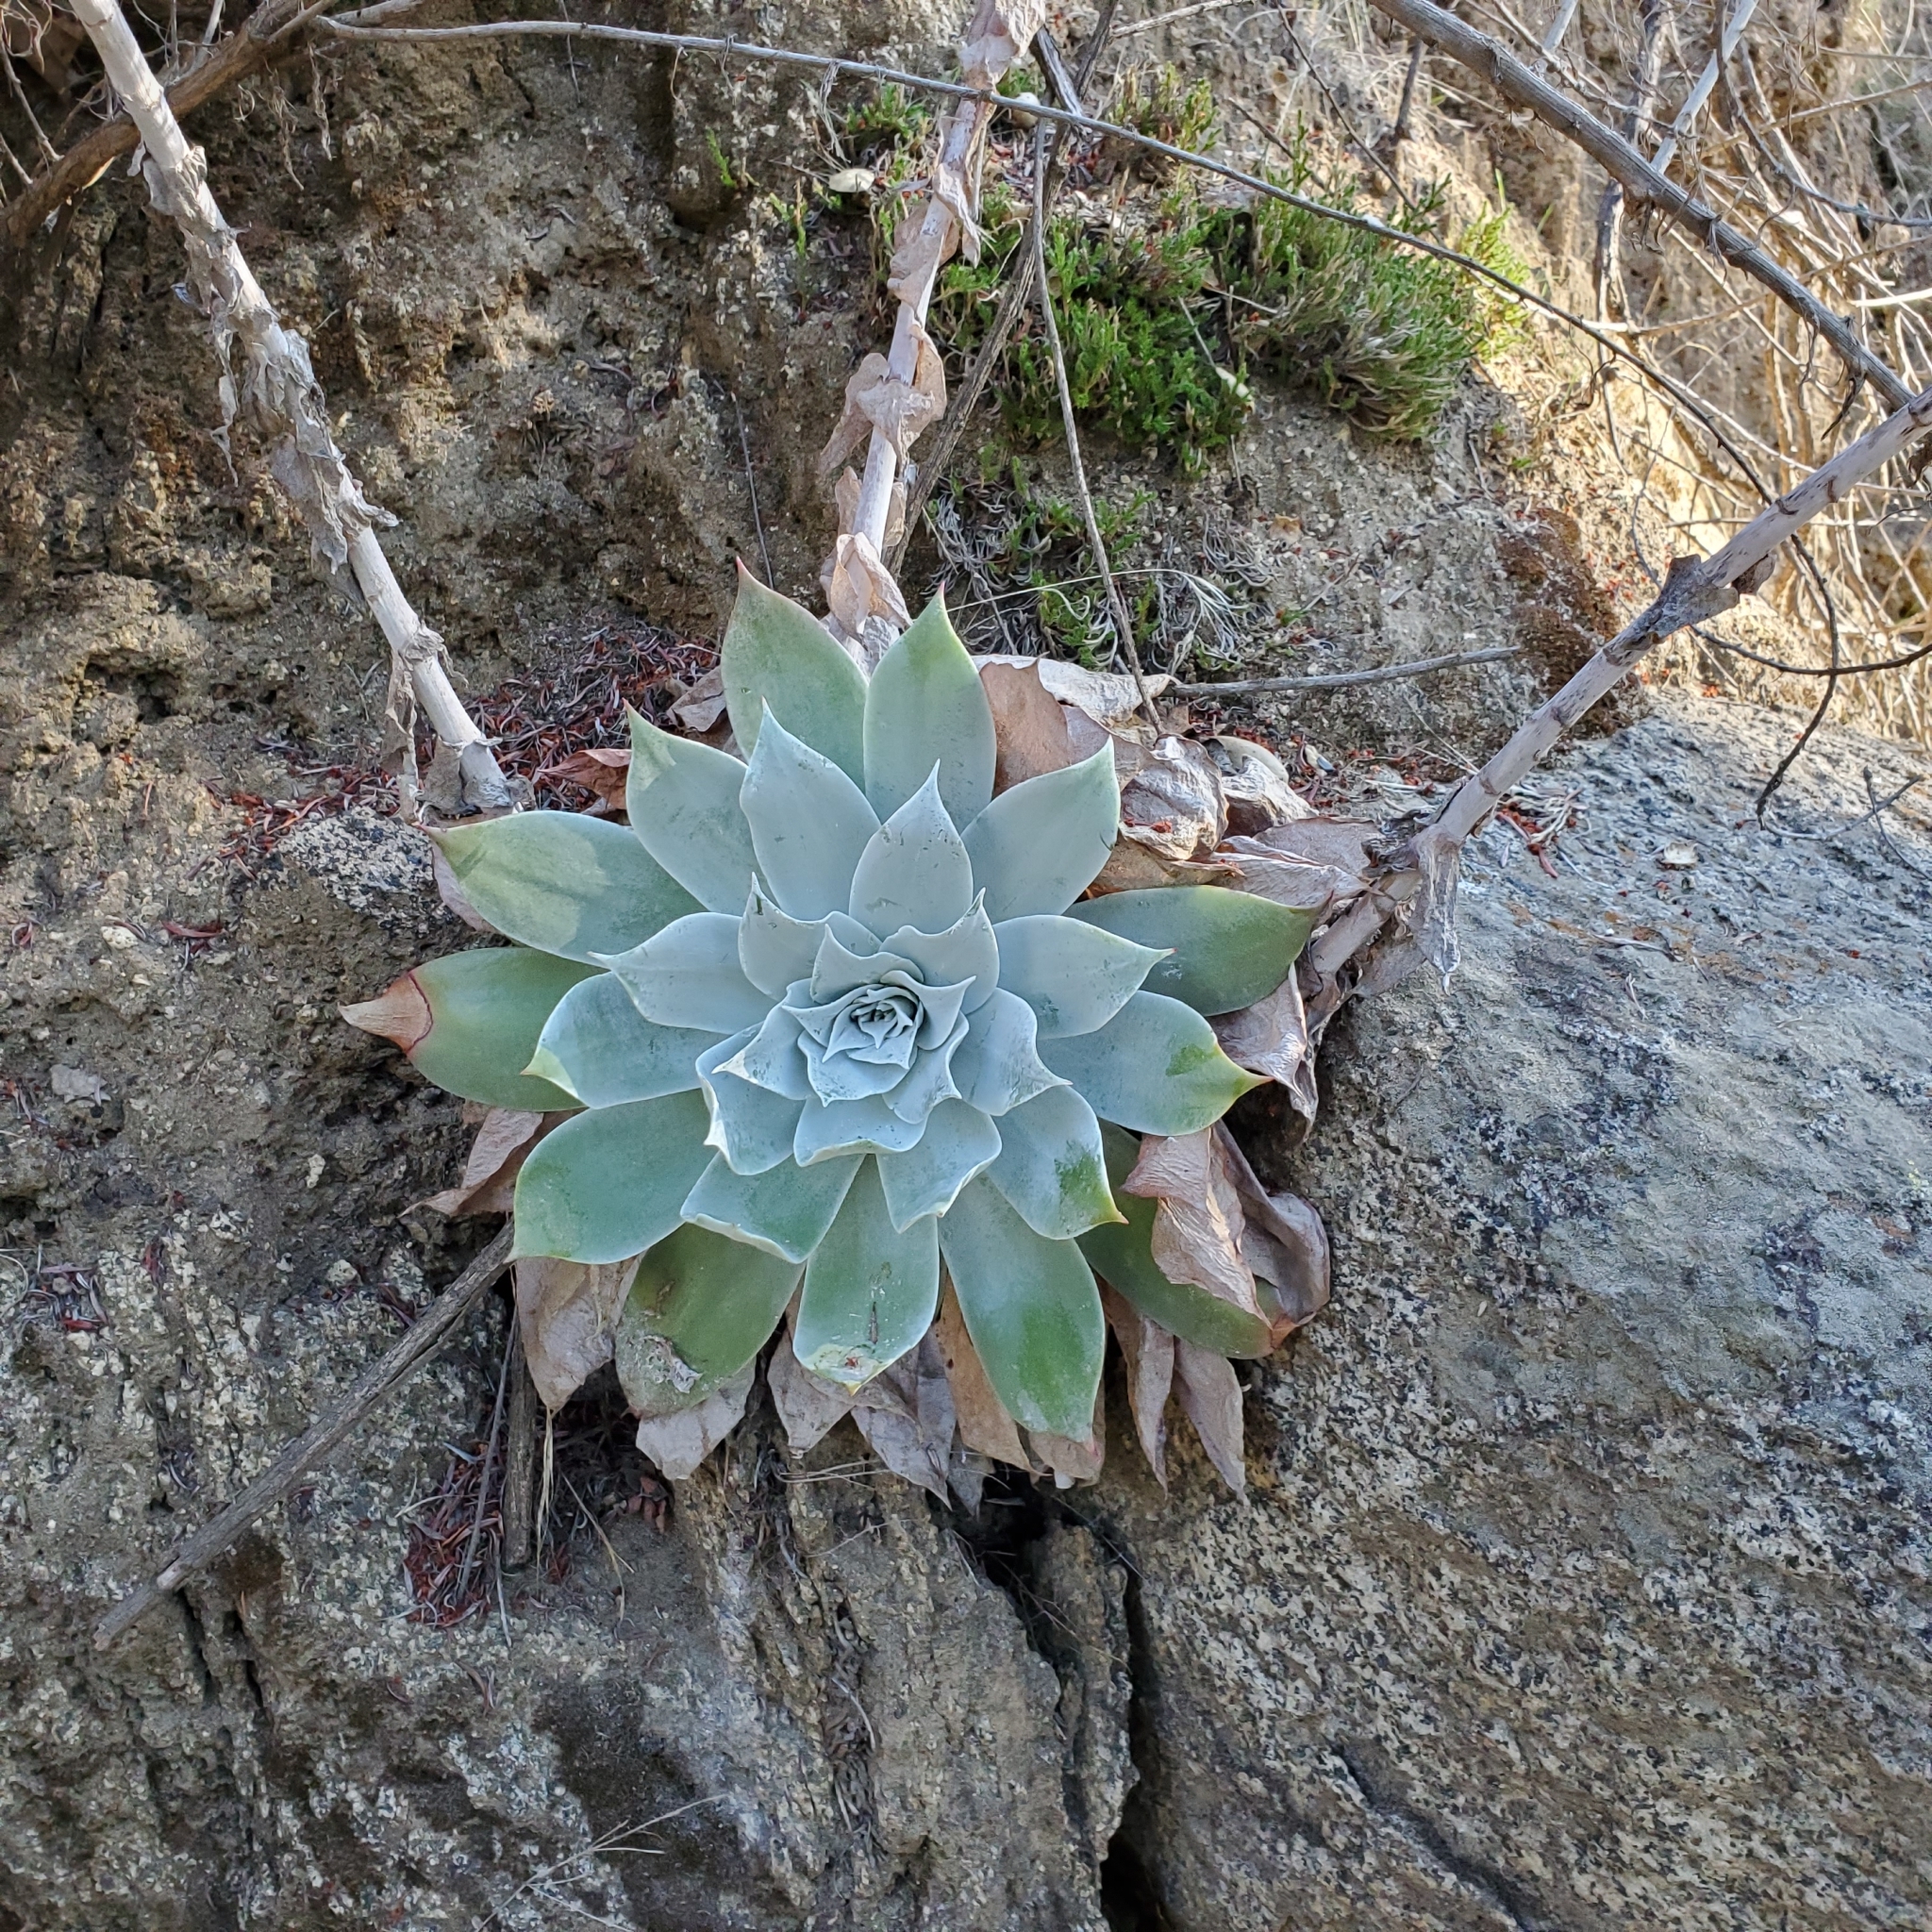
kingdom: Plantae
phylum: Tracheophyta
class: Magnoliopsida
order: Saxifragales
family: Crassulaceae
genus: Dudleya
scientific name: Dudleya pulverulenta
